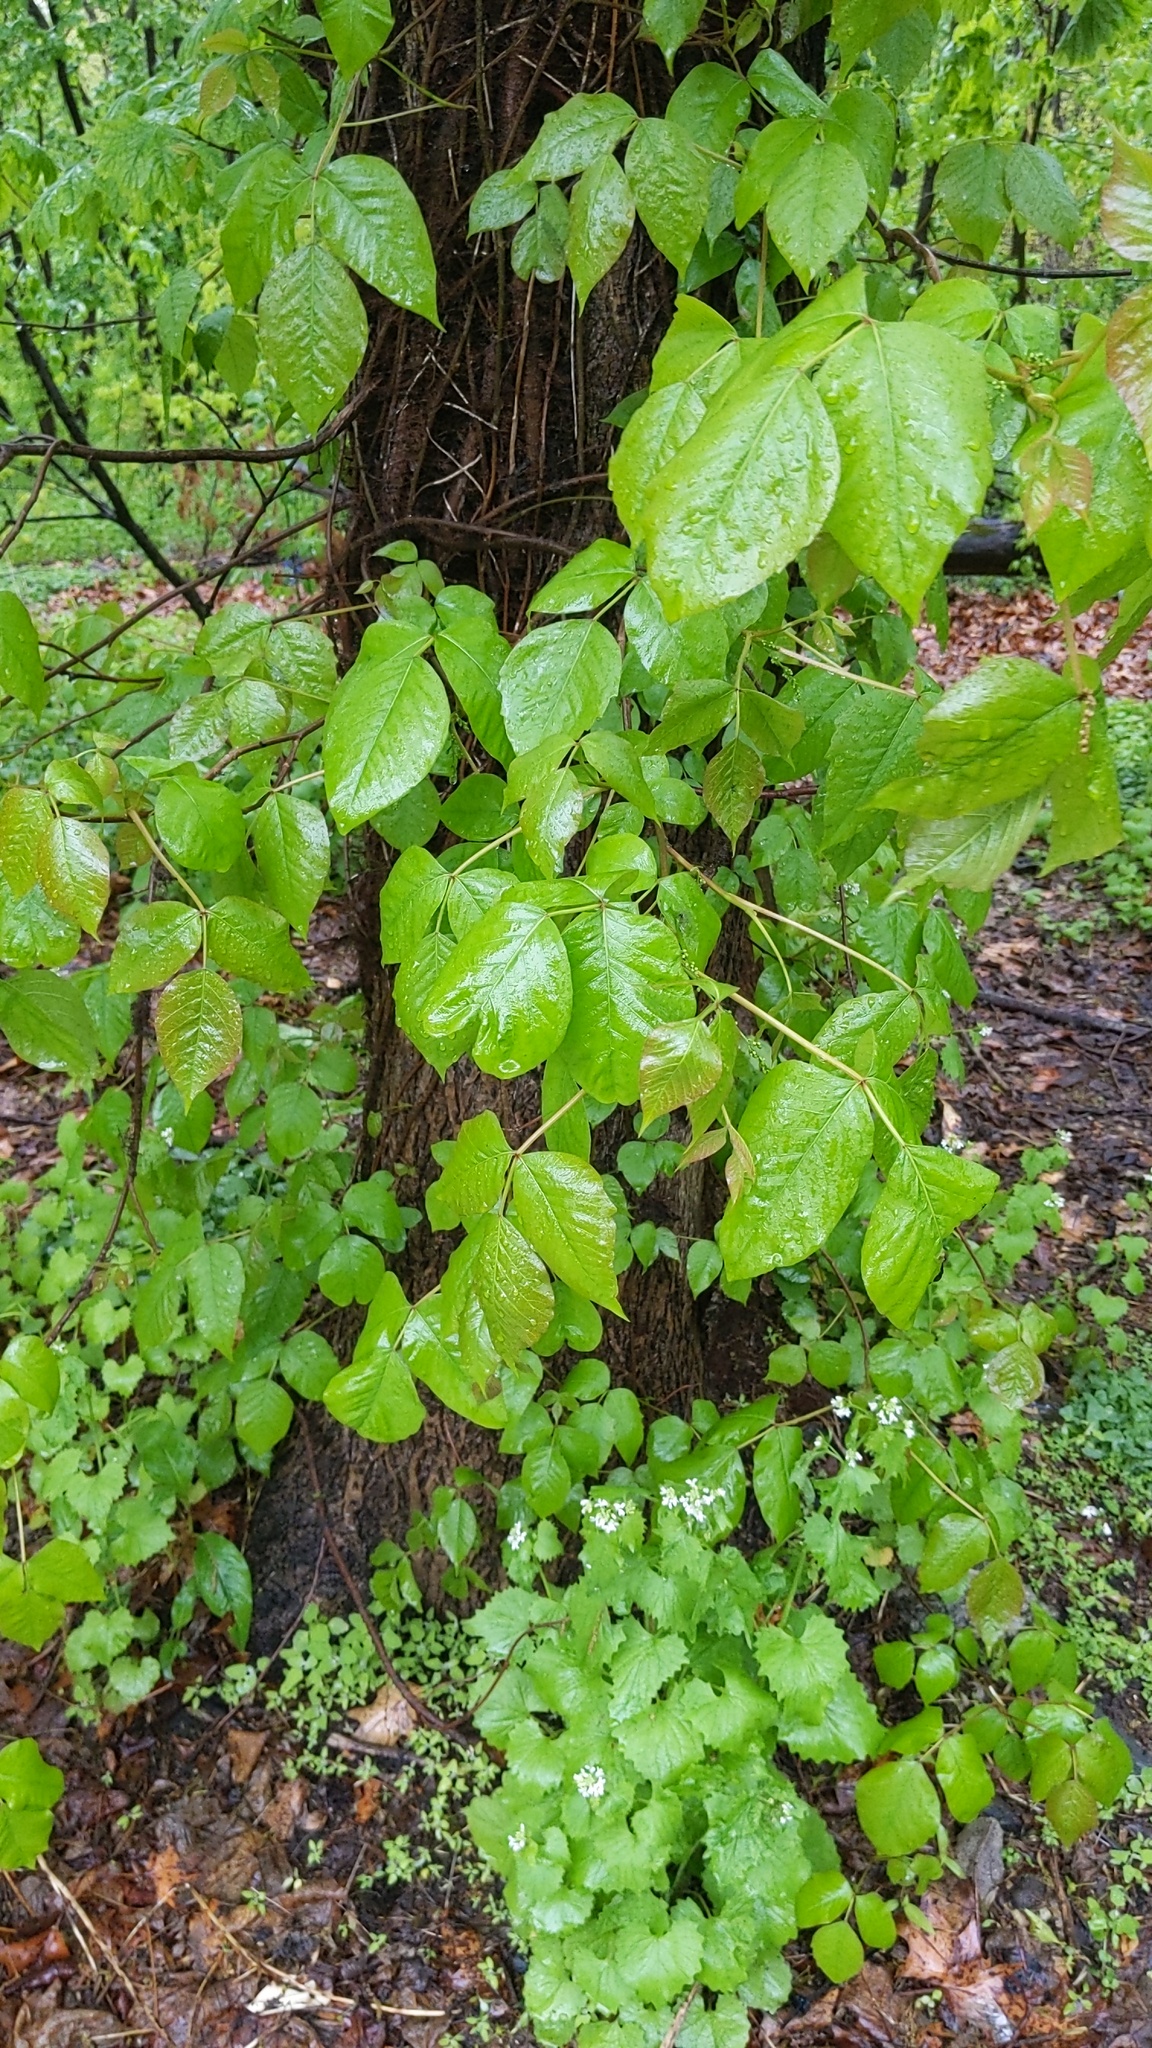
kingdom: Plantae
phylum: Tracheophyta
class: Magnoliopsida
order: Sapindales
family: Anacardiaceae
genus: Toxicodendron
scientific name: Toxicodendron radicans
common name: Poison ivy
